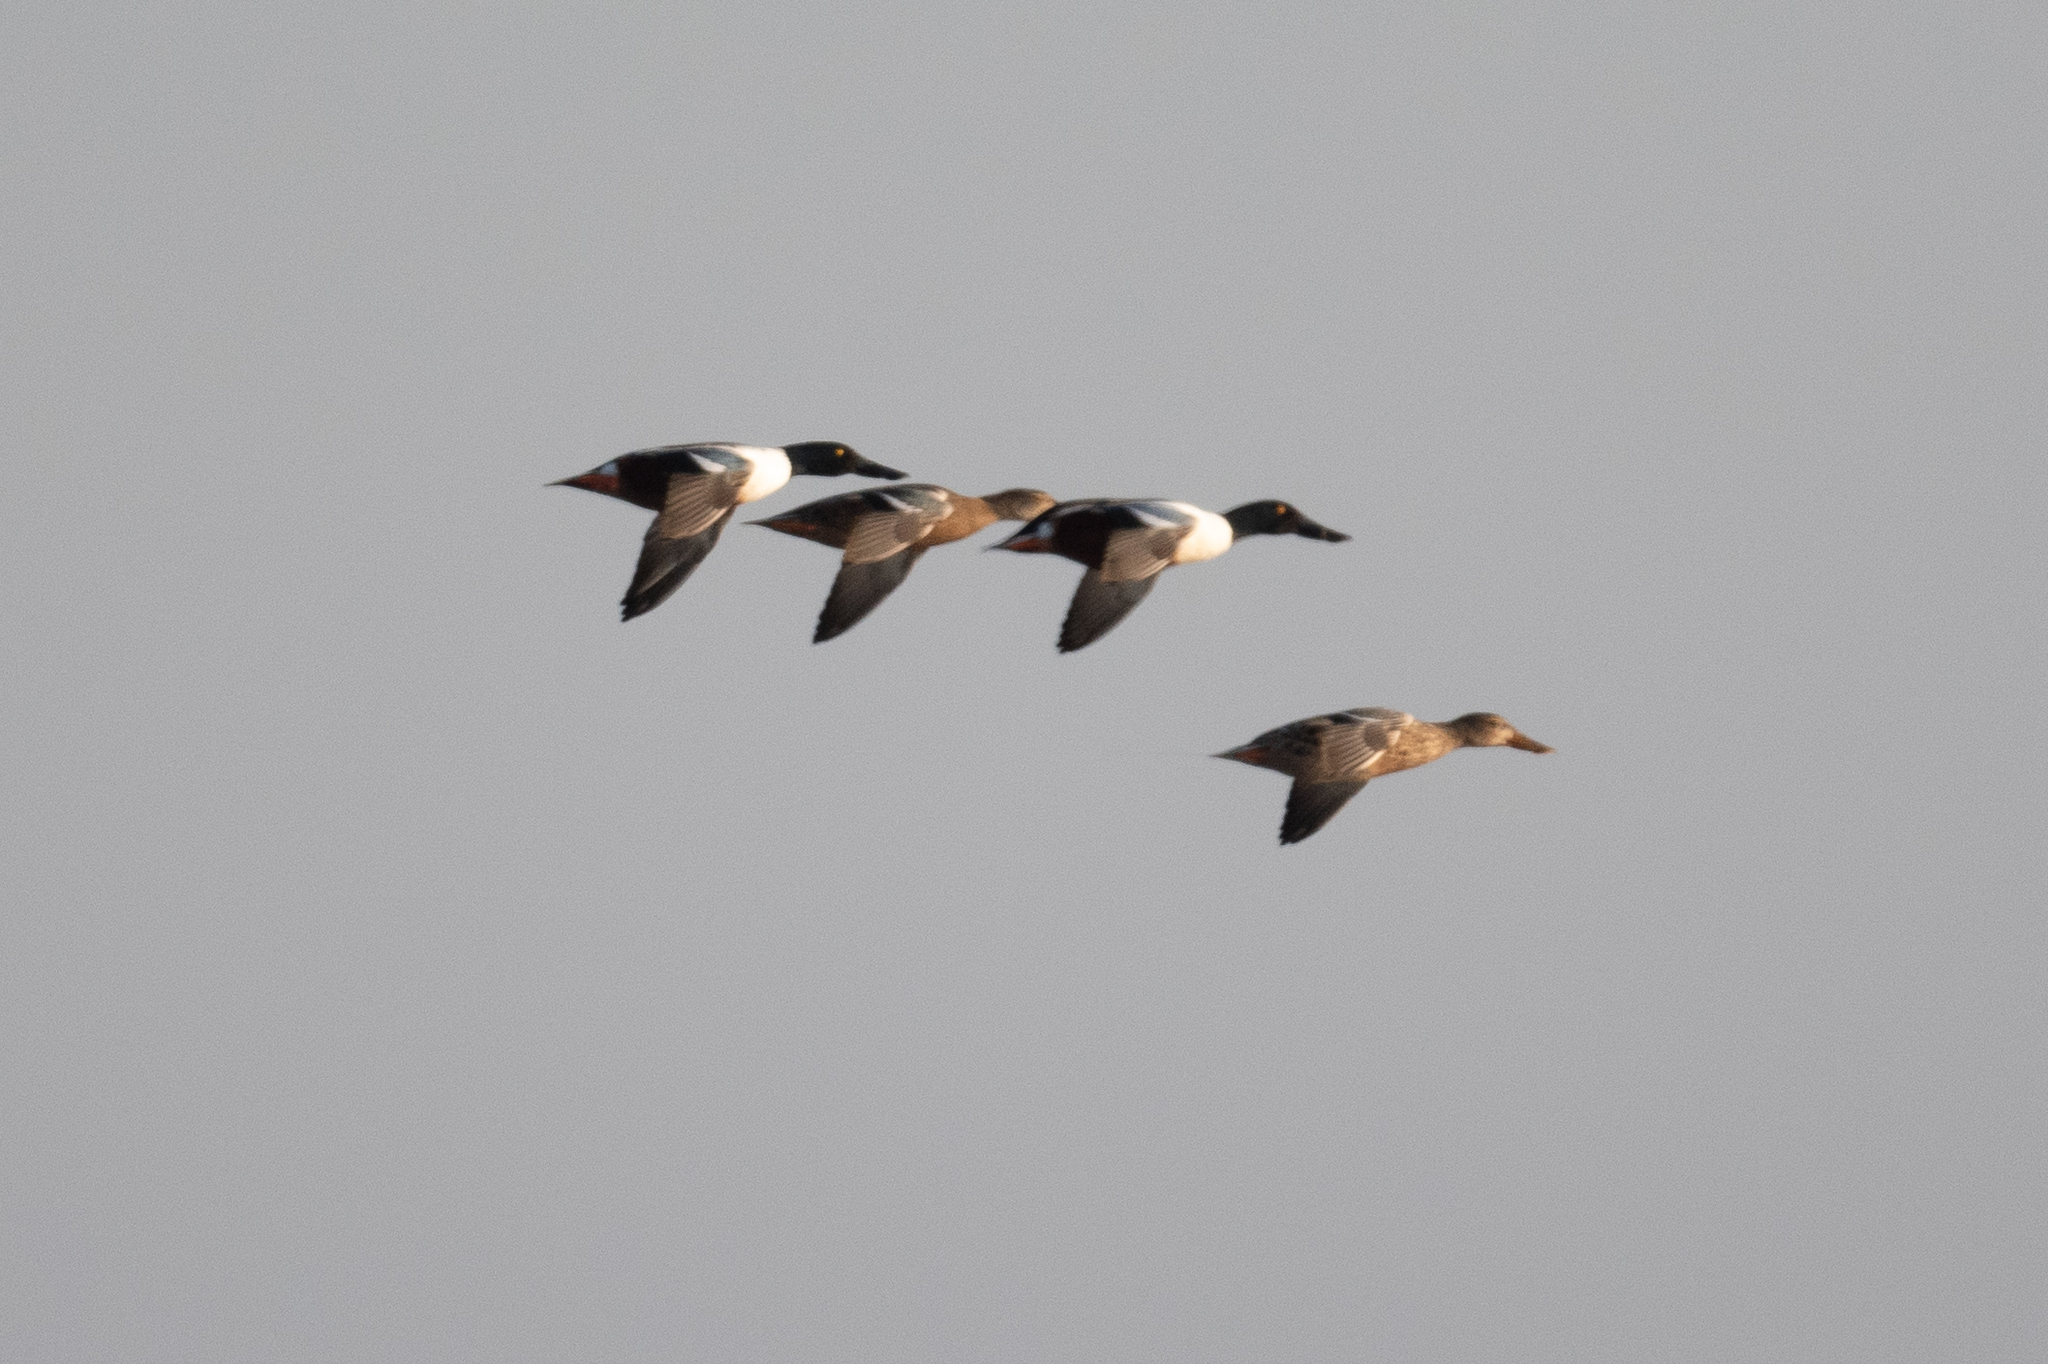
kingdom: Animalia
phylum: Chordata
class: Aves
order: Anseriformes
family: Anatidae
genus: Spatula
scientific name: Spatula clypeata
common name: Northern shoveler
